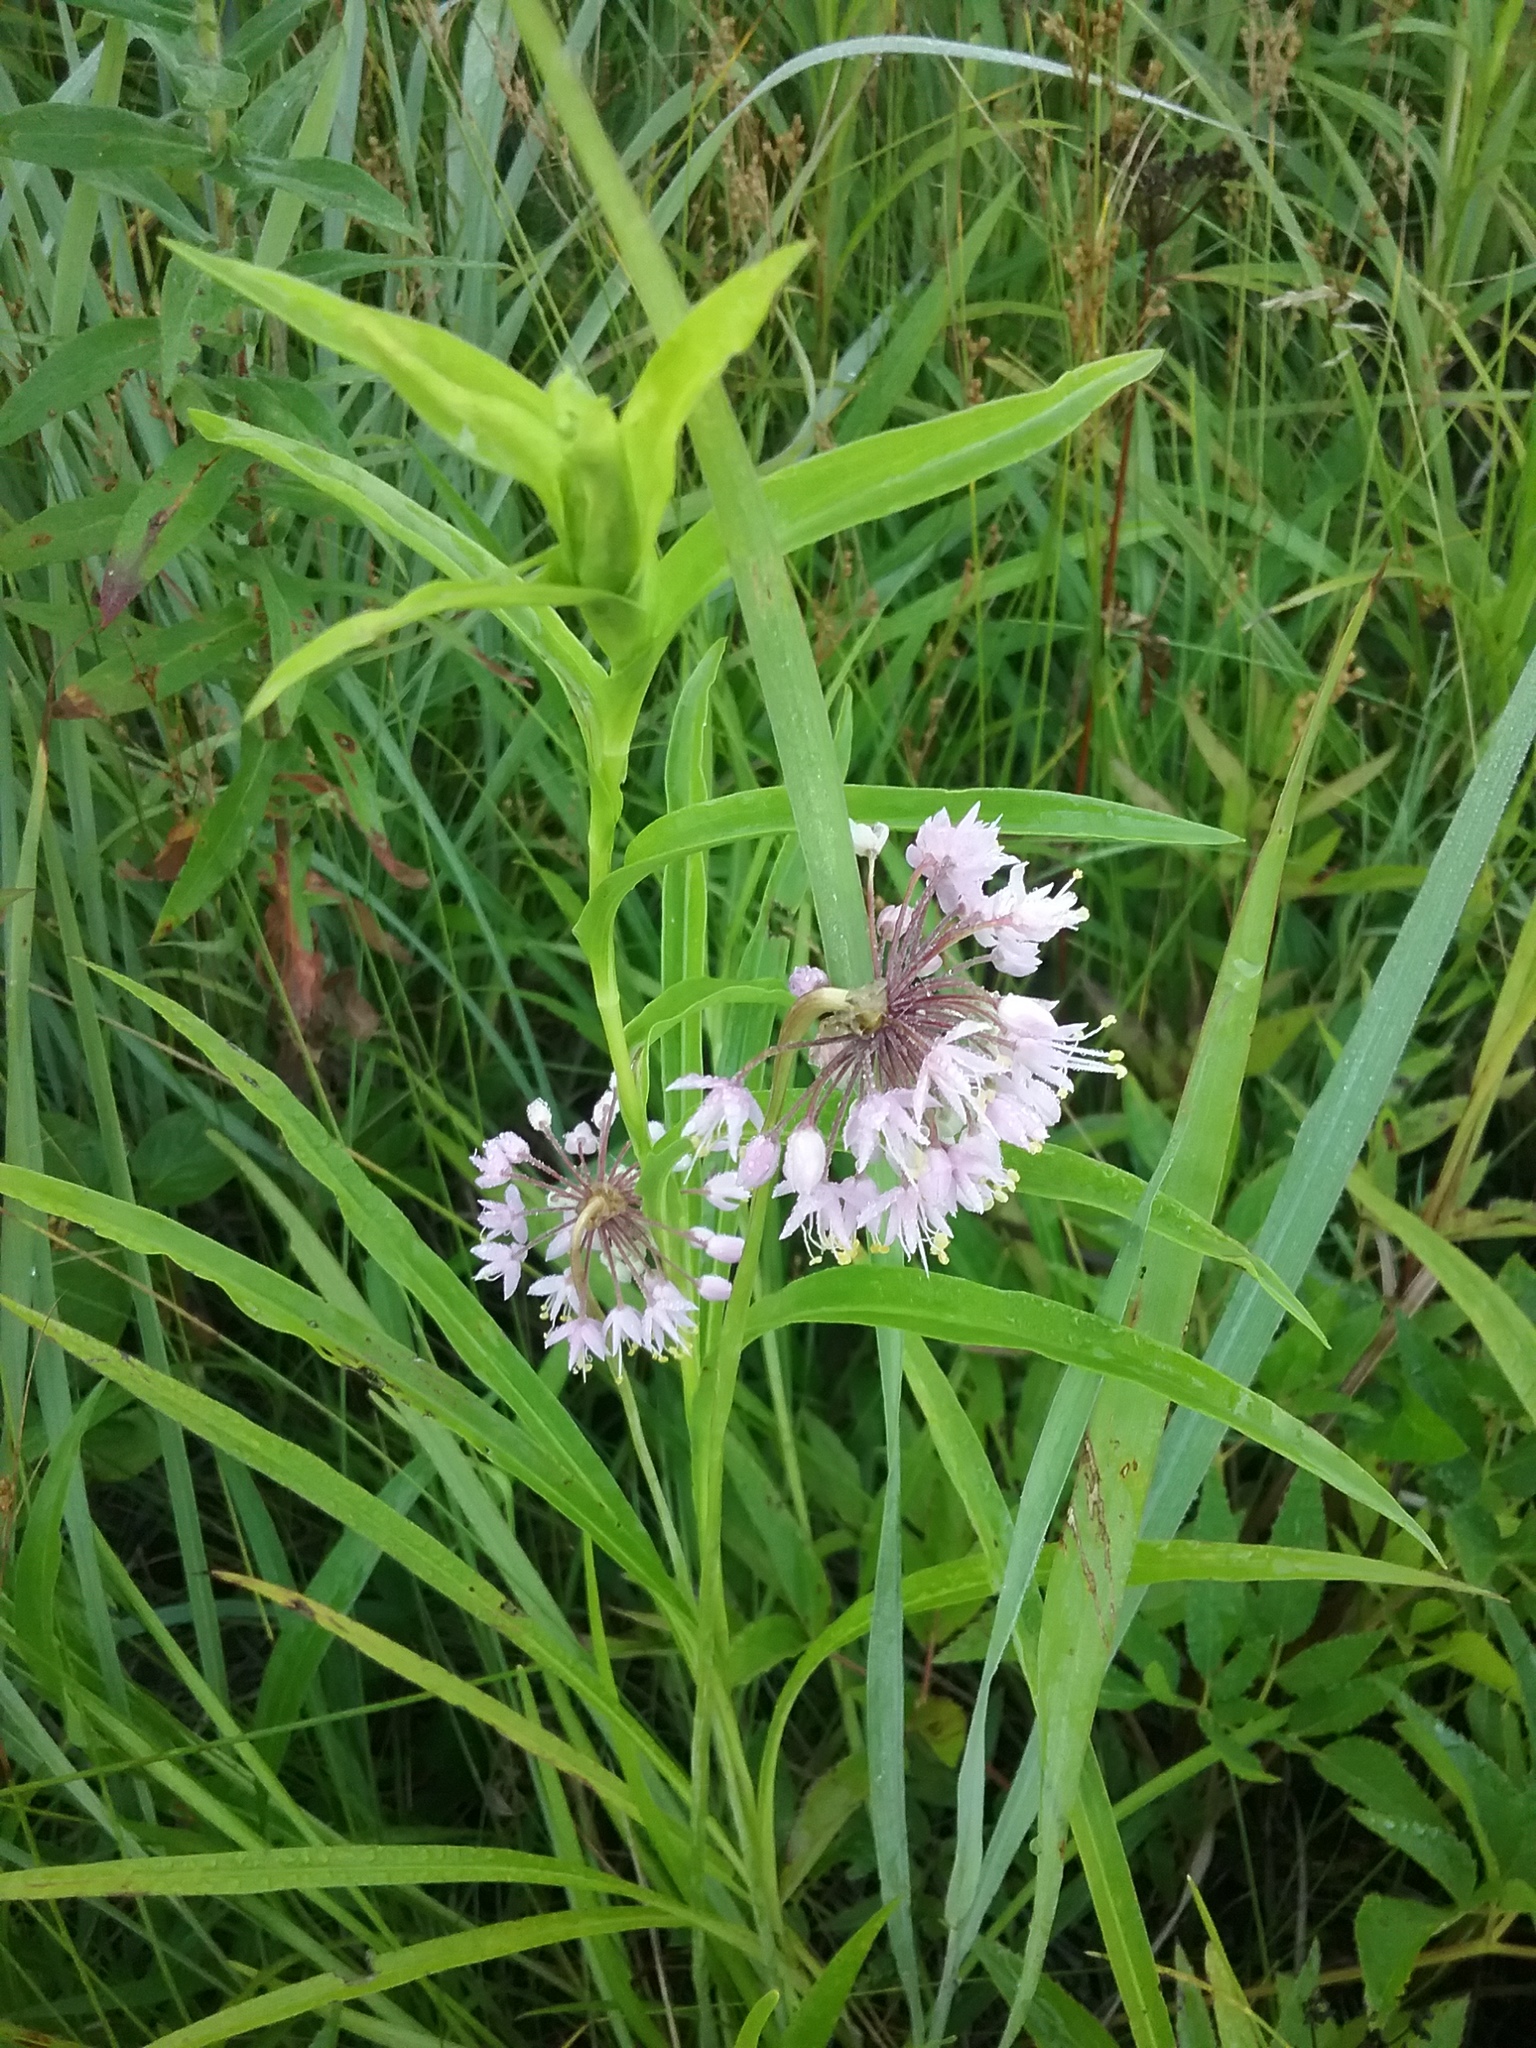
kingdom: Plantae
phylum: Tracheophyta
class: Liliopsida
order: Asparagales
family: Amaryllidaceae
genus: Allium
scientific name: Allium cernuum
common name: Nodding onion
